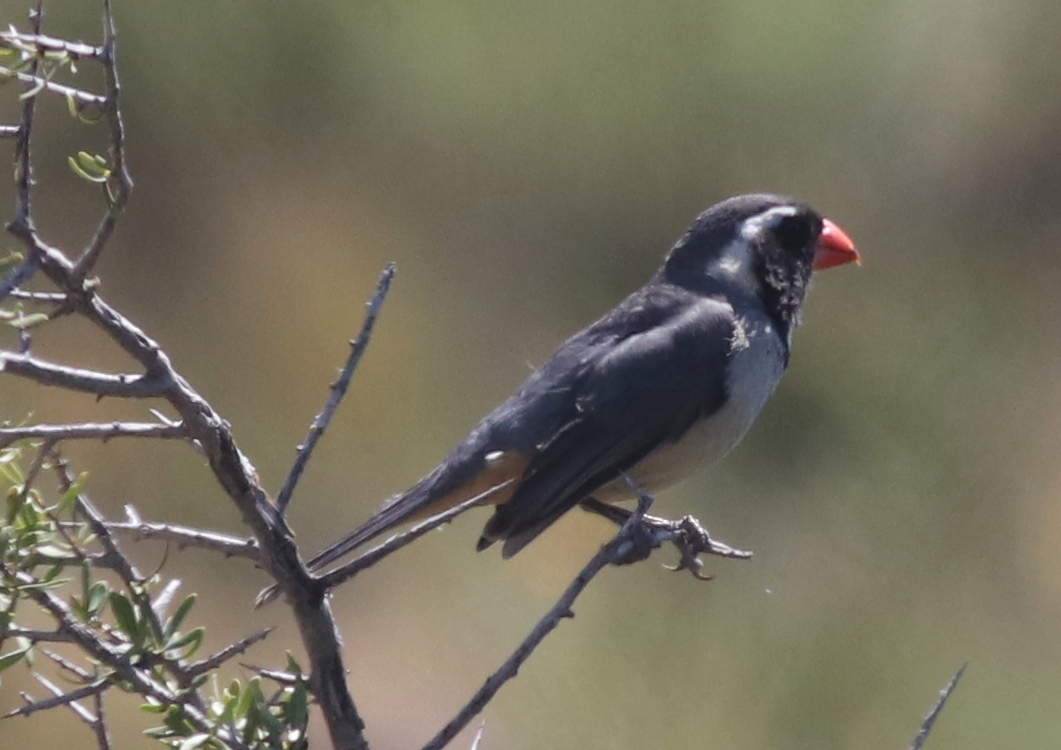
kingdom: Animalia
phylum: Chordata
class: Aves
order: Passeriformes
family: Thraupidae
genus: Saltator
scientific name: Saltator aurantiirostris
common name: Golden-billed saltator
